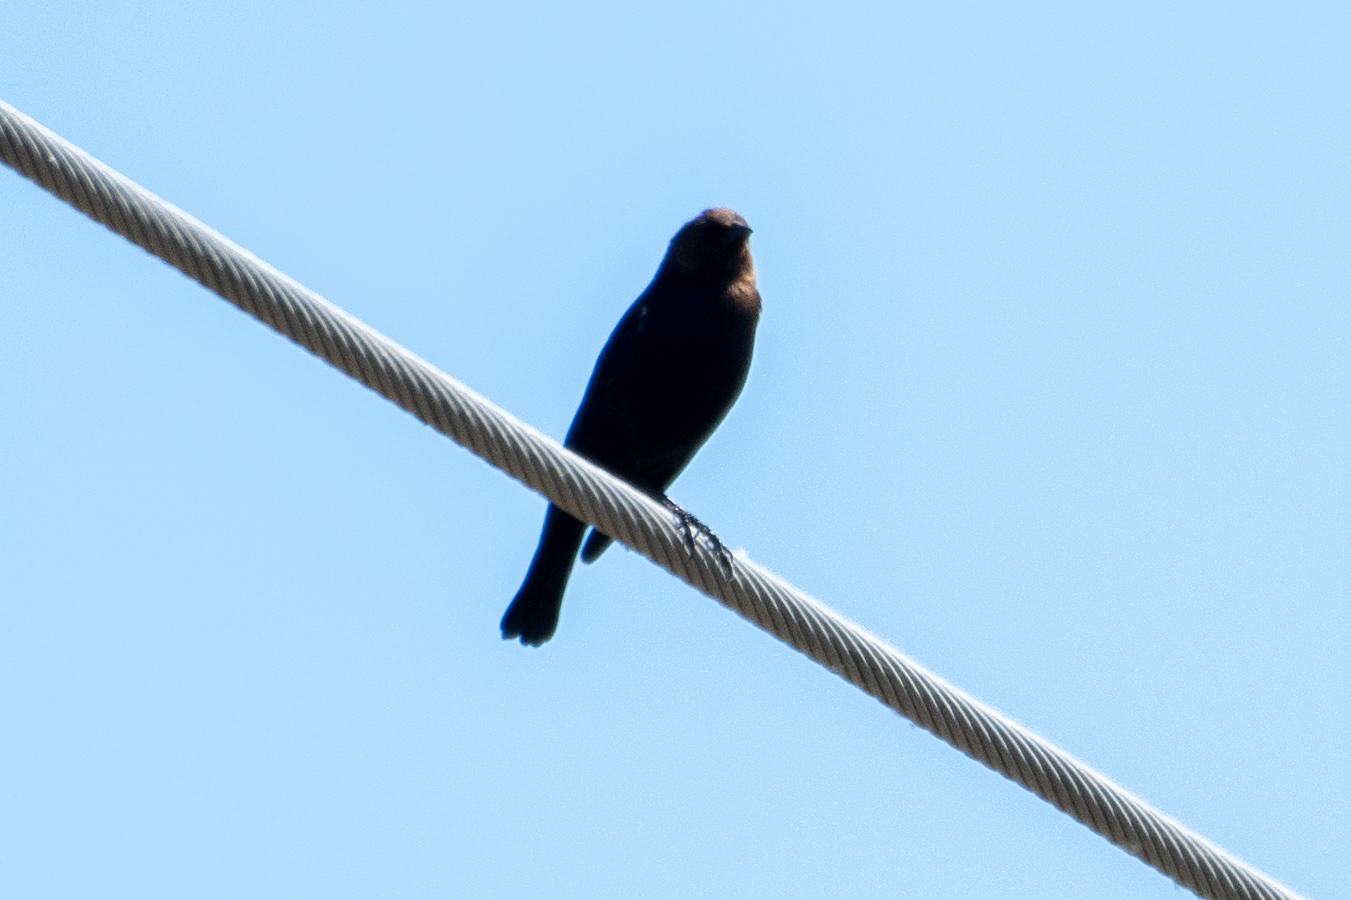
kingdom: Animalia
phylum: Chordata
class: Aves
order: Passeriformes
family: Icteridae
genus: Molothrus
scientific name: Molothrus ater
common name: Brown-headed cowbird
